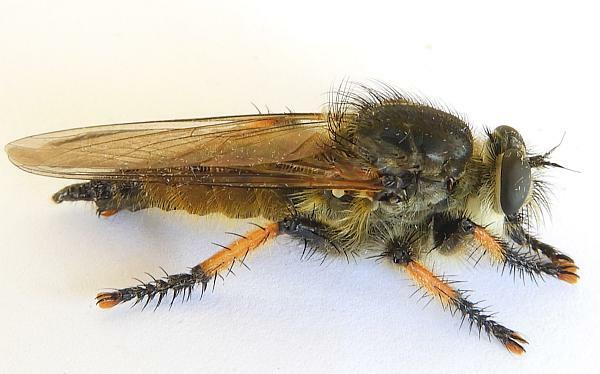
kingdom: Animalia
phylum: Arthropoda
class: Insecta
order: Diptera
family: Asilidae
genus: Promachus
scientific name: Promachus sackeni
